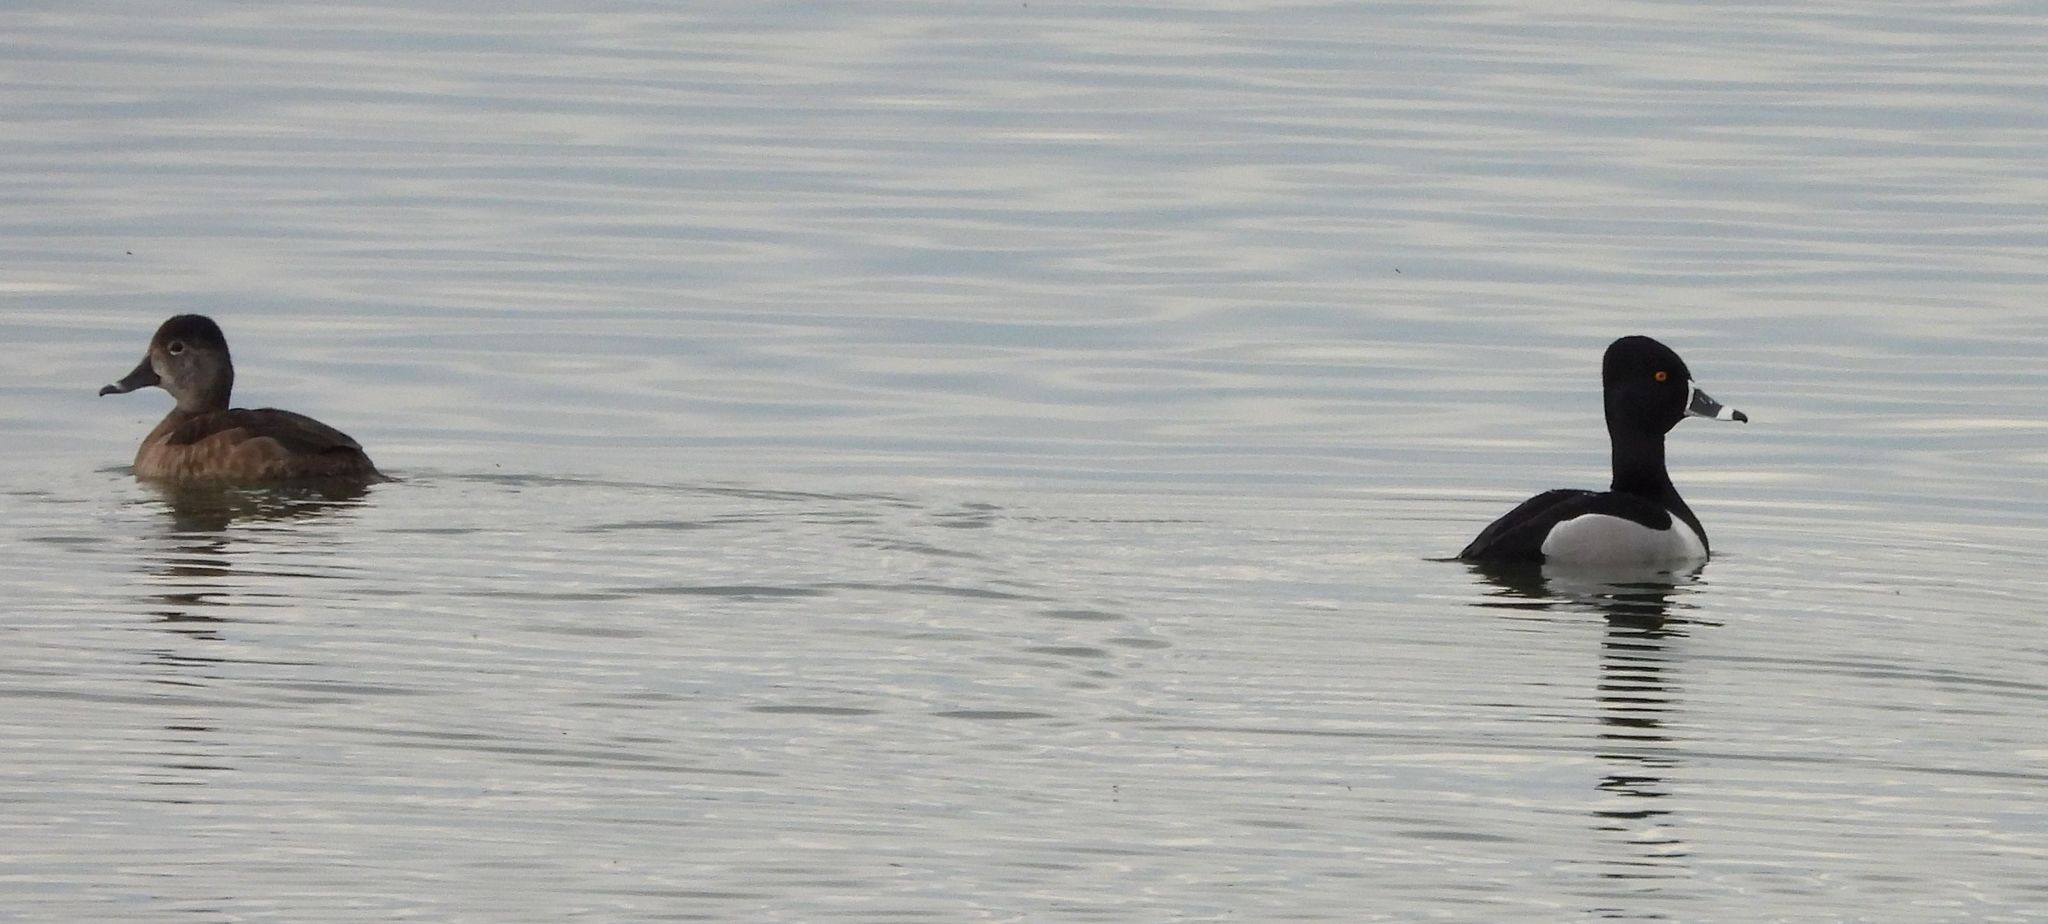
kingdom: Animalia
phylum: Chordata
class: Aves
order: Anseriformes
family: Anatidae
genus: Aythya
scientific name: Aythya collaris
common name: Ring-necked duck
